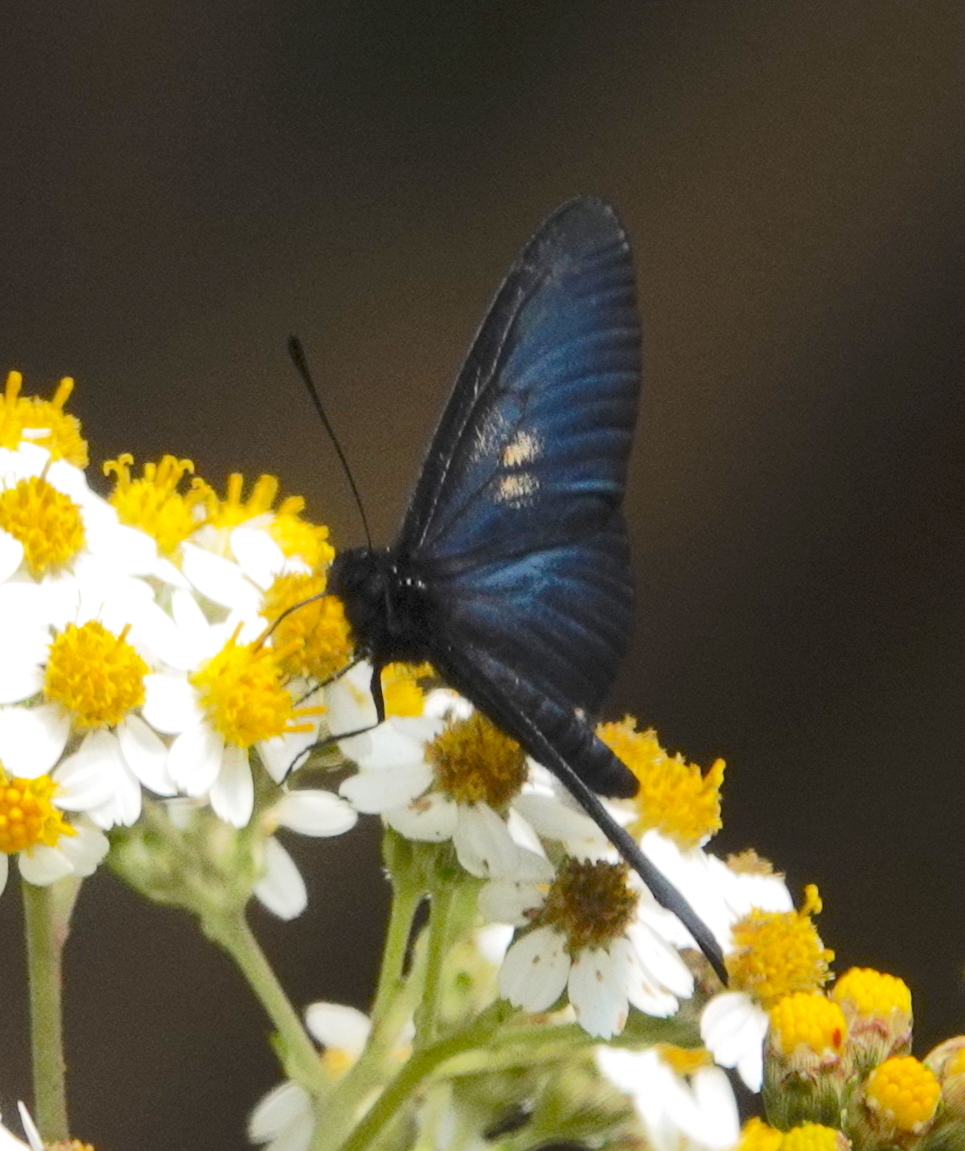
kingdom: Animalia
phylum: Arthropoda
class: Insecta
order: Lepidoptera
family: Nymphalidae
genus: Acraea
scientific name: Acraea Altinote ozomene
